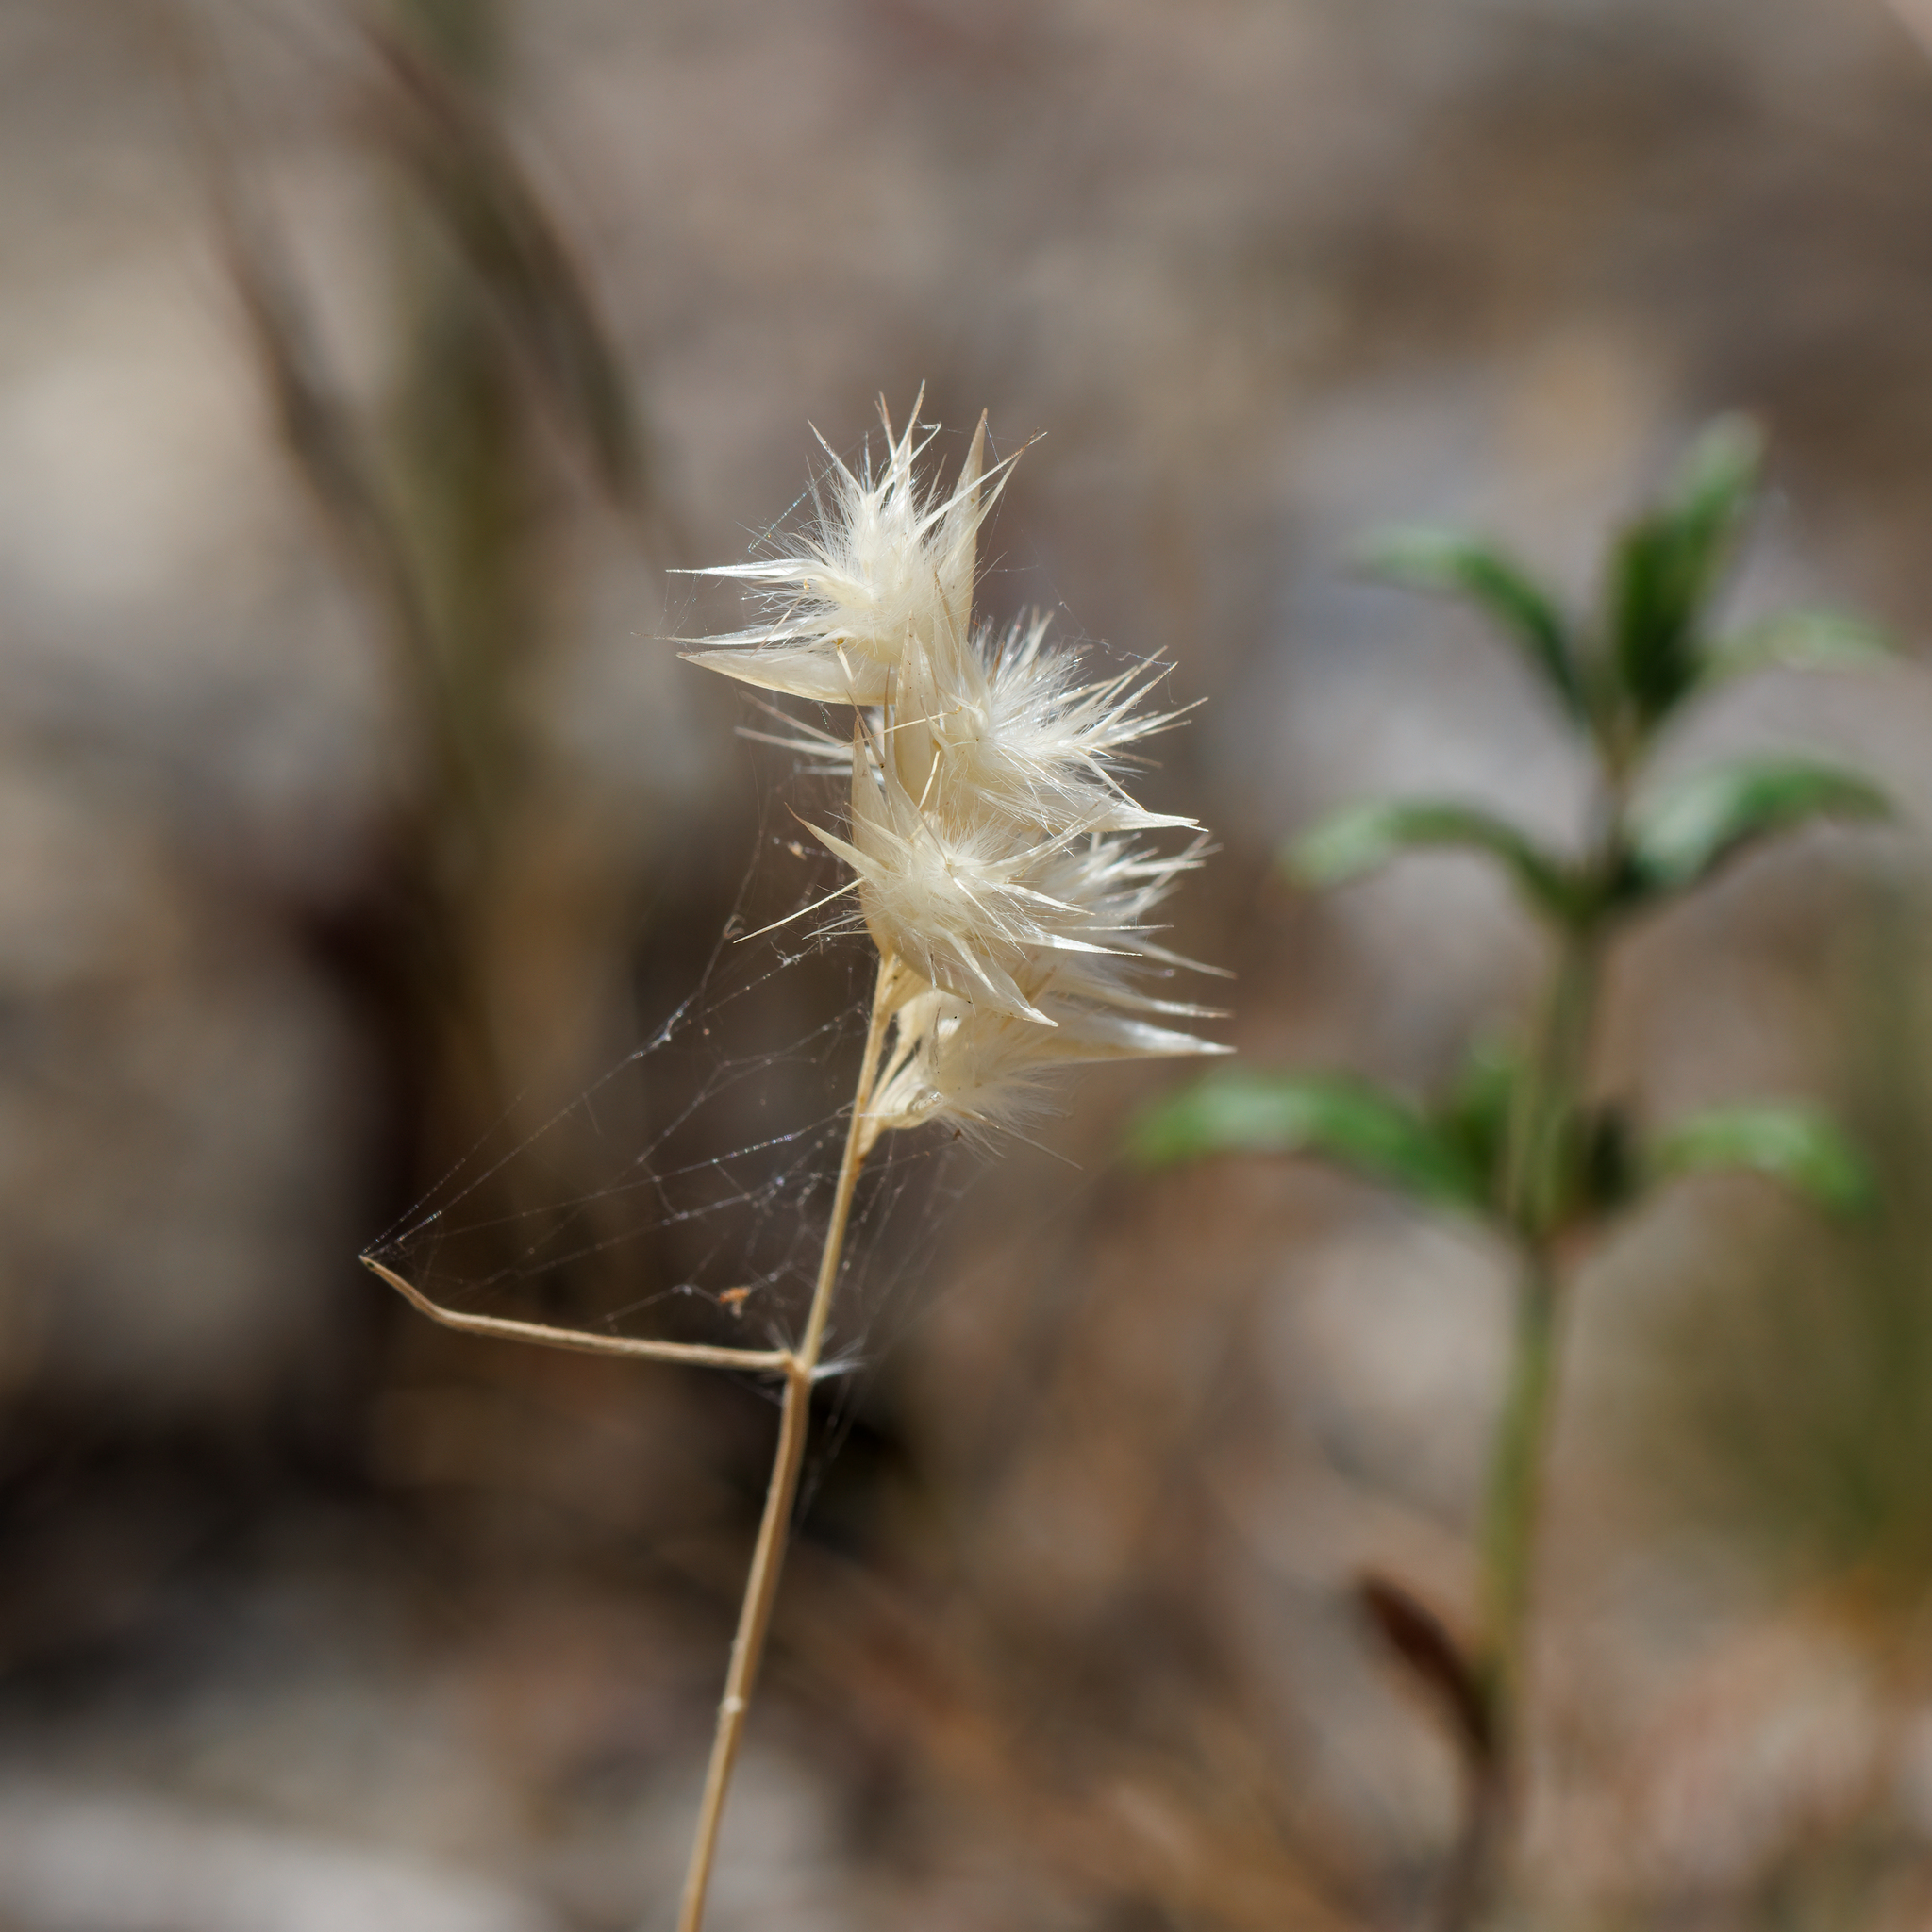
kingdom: Plantae
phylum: Tracheophyta
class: Liliopsida
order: Poales
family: Poaceae
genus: Rytidosperma
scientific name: Rytidosperma geniculatum
